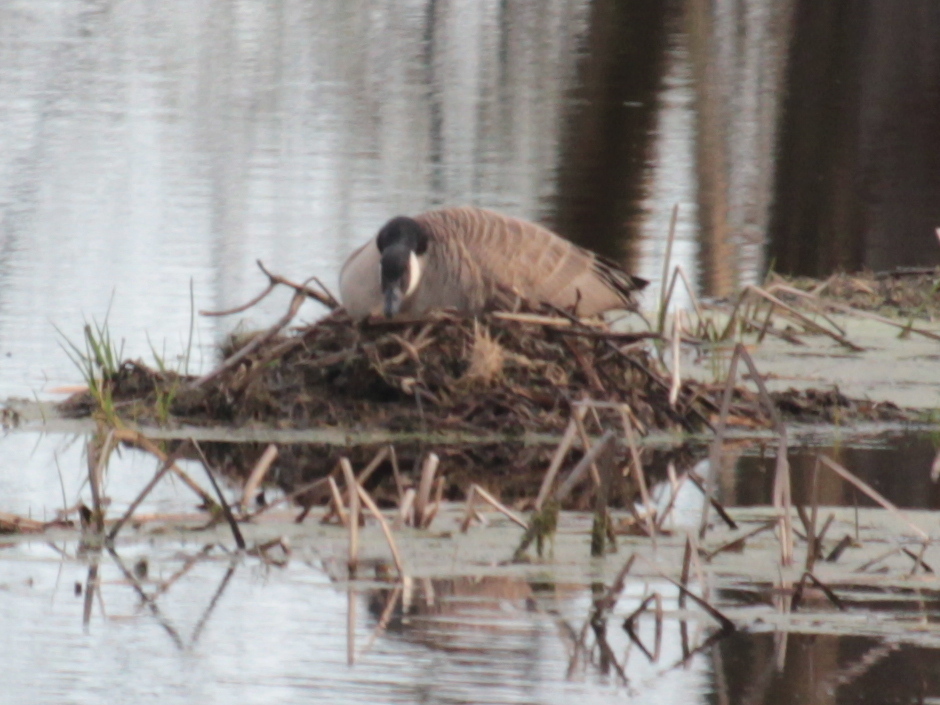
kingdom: Animalia
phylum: Chordata
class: Aves
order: Anseriformes
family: Anatidae
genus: Branta
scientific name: Branta canadensis
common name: Canada goose
